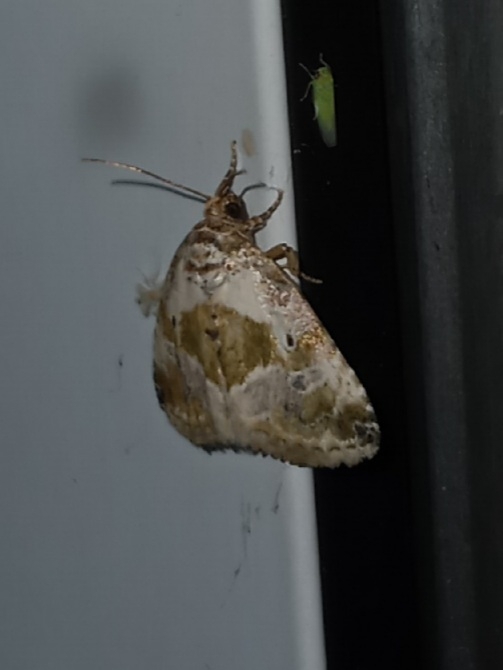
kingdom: Animalia
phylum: Arthropoda
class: Insecta
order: Lepidoptera
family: Noctuidae
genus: Maliattha
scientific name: Maliattha synochitis
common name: Black-dotted glyph
